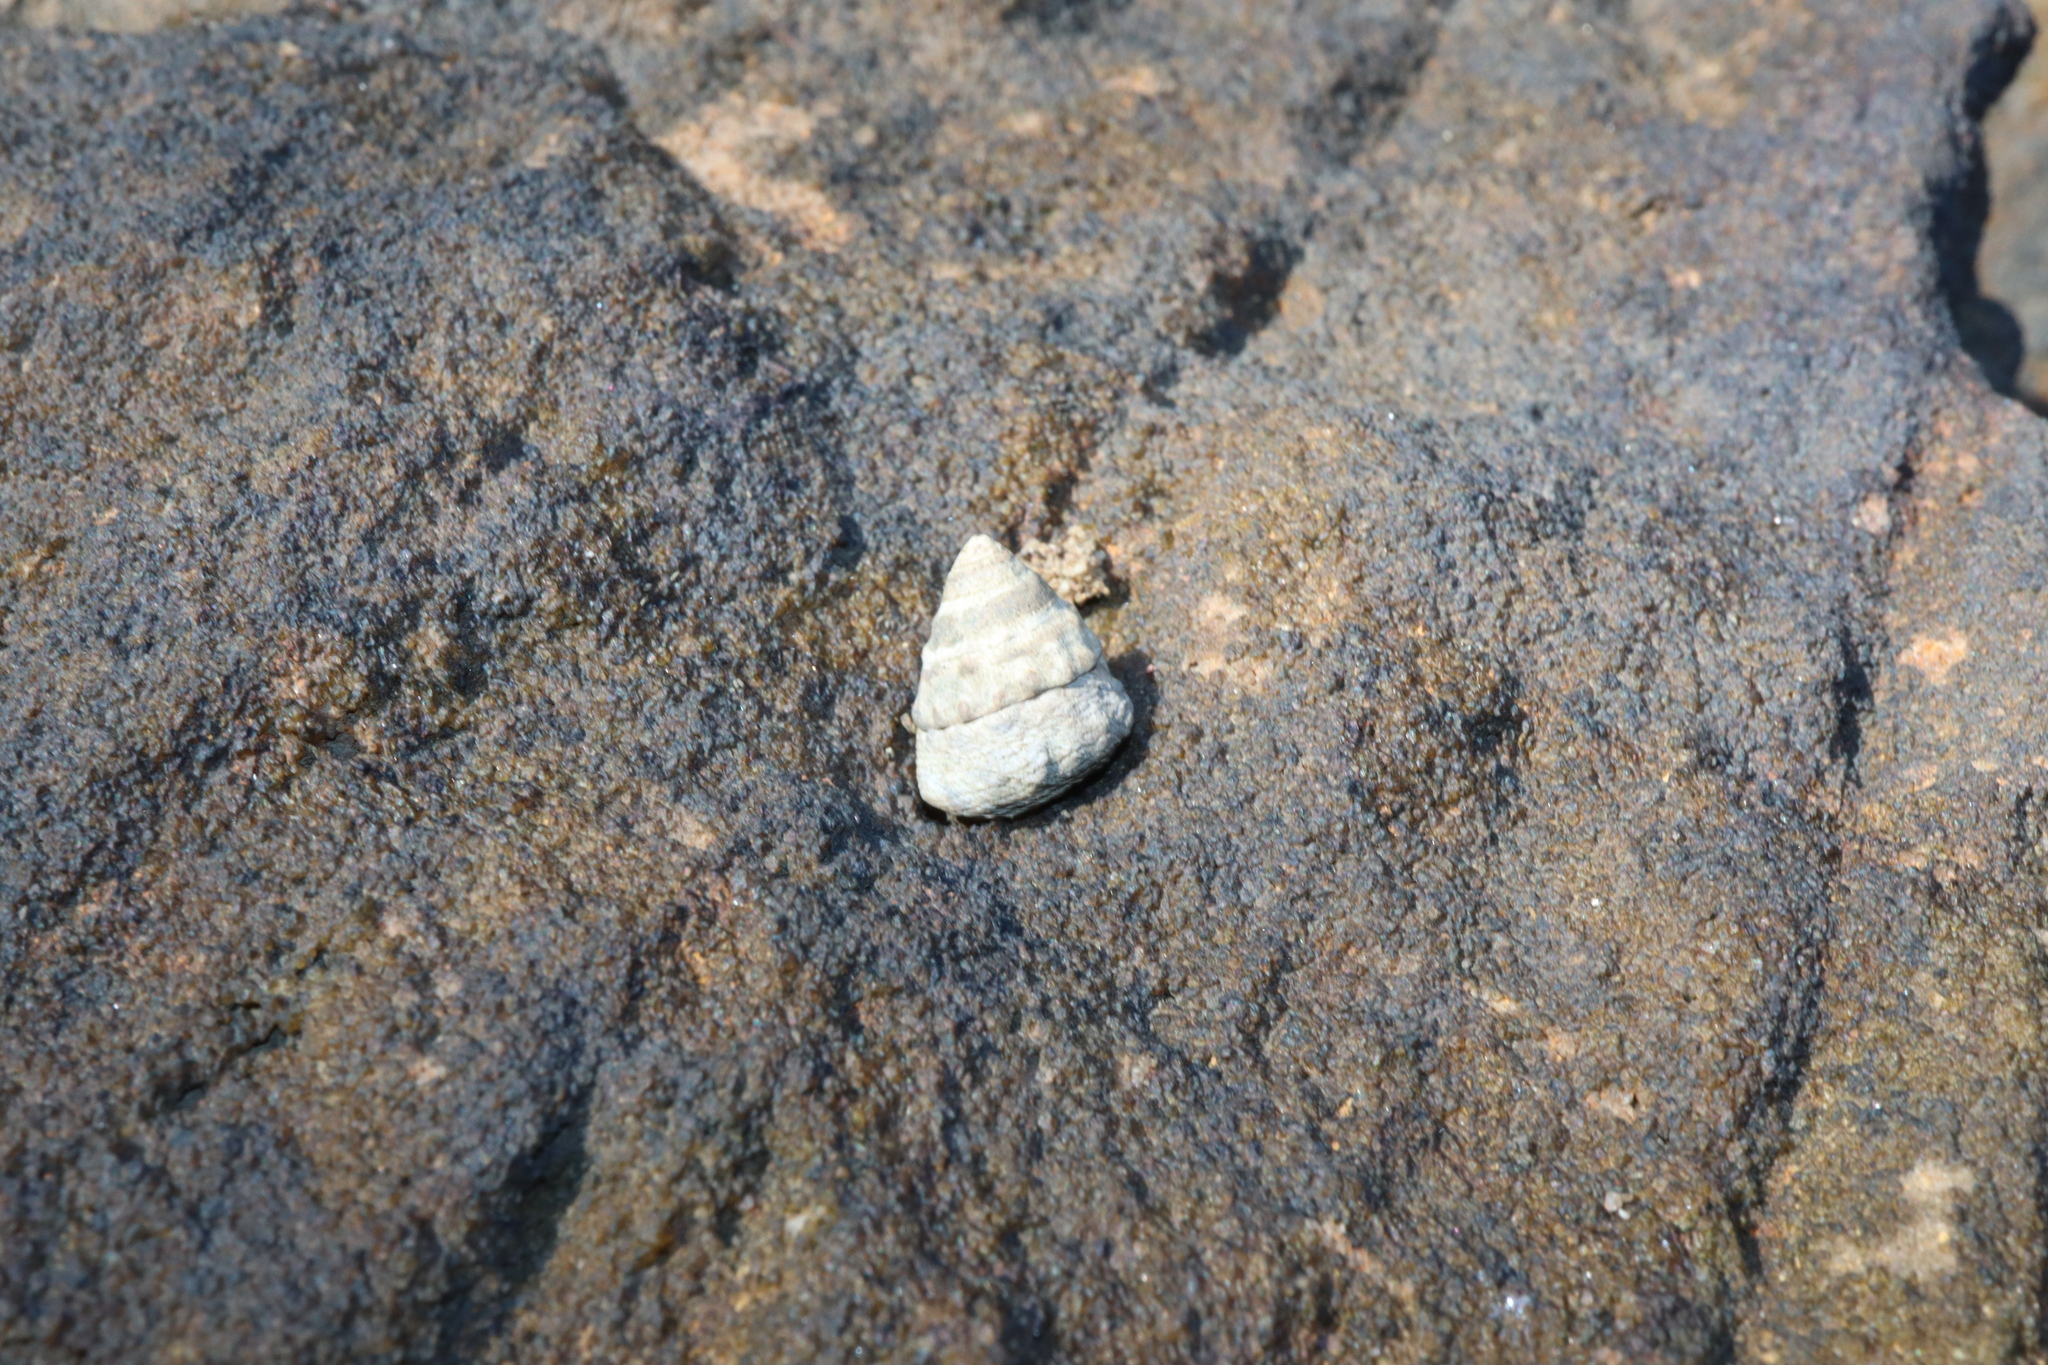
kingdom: Animalia
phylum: Mollusca
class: Gastropoda
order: Littorinimorpha
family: Littorinidae
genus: Bembicium
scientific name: Bembicium auratum
